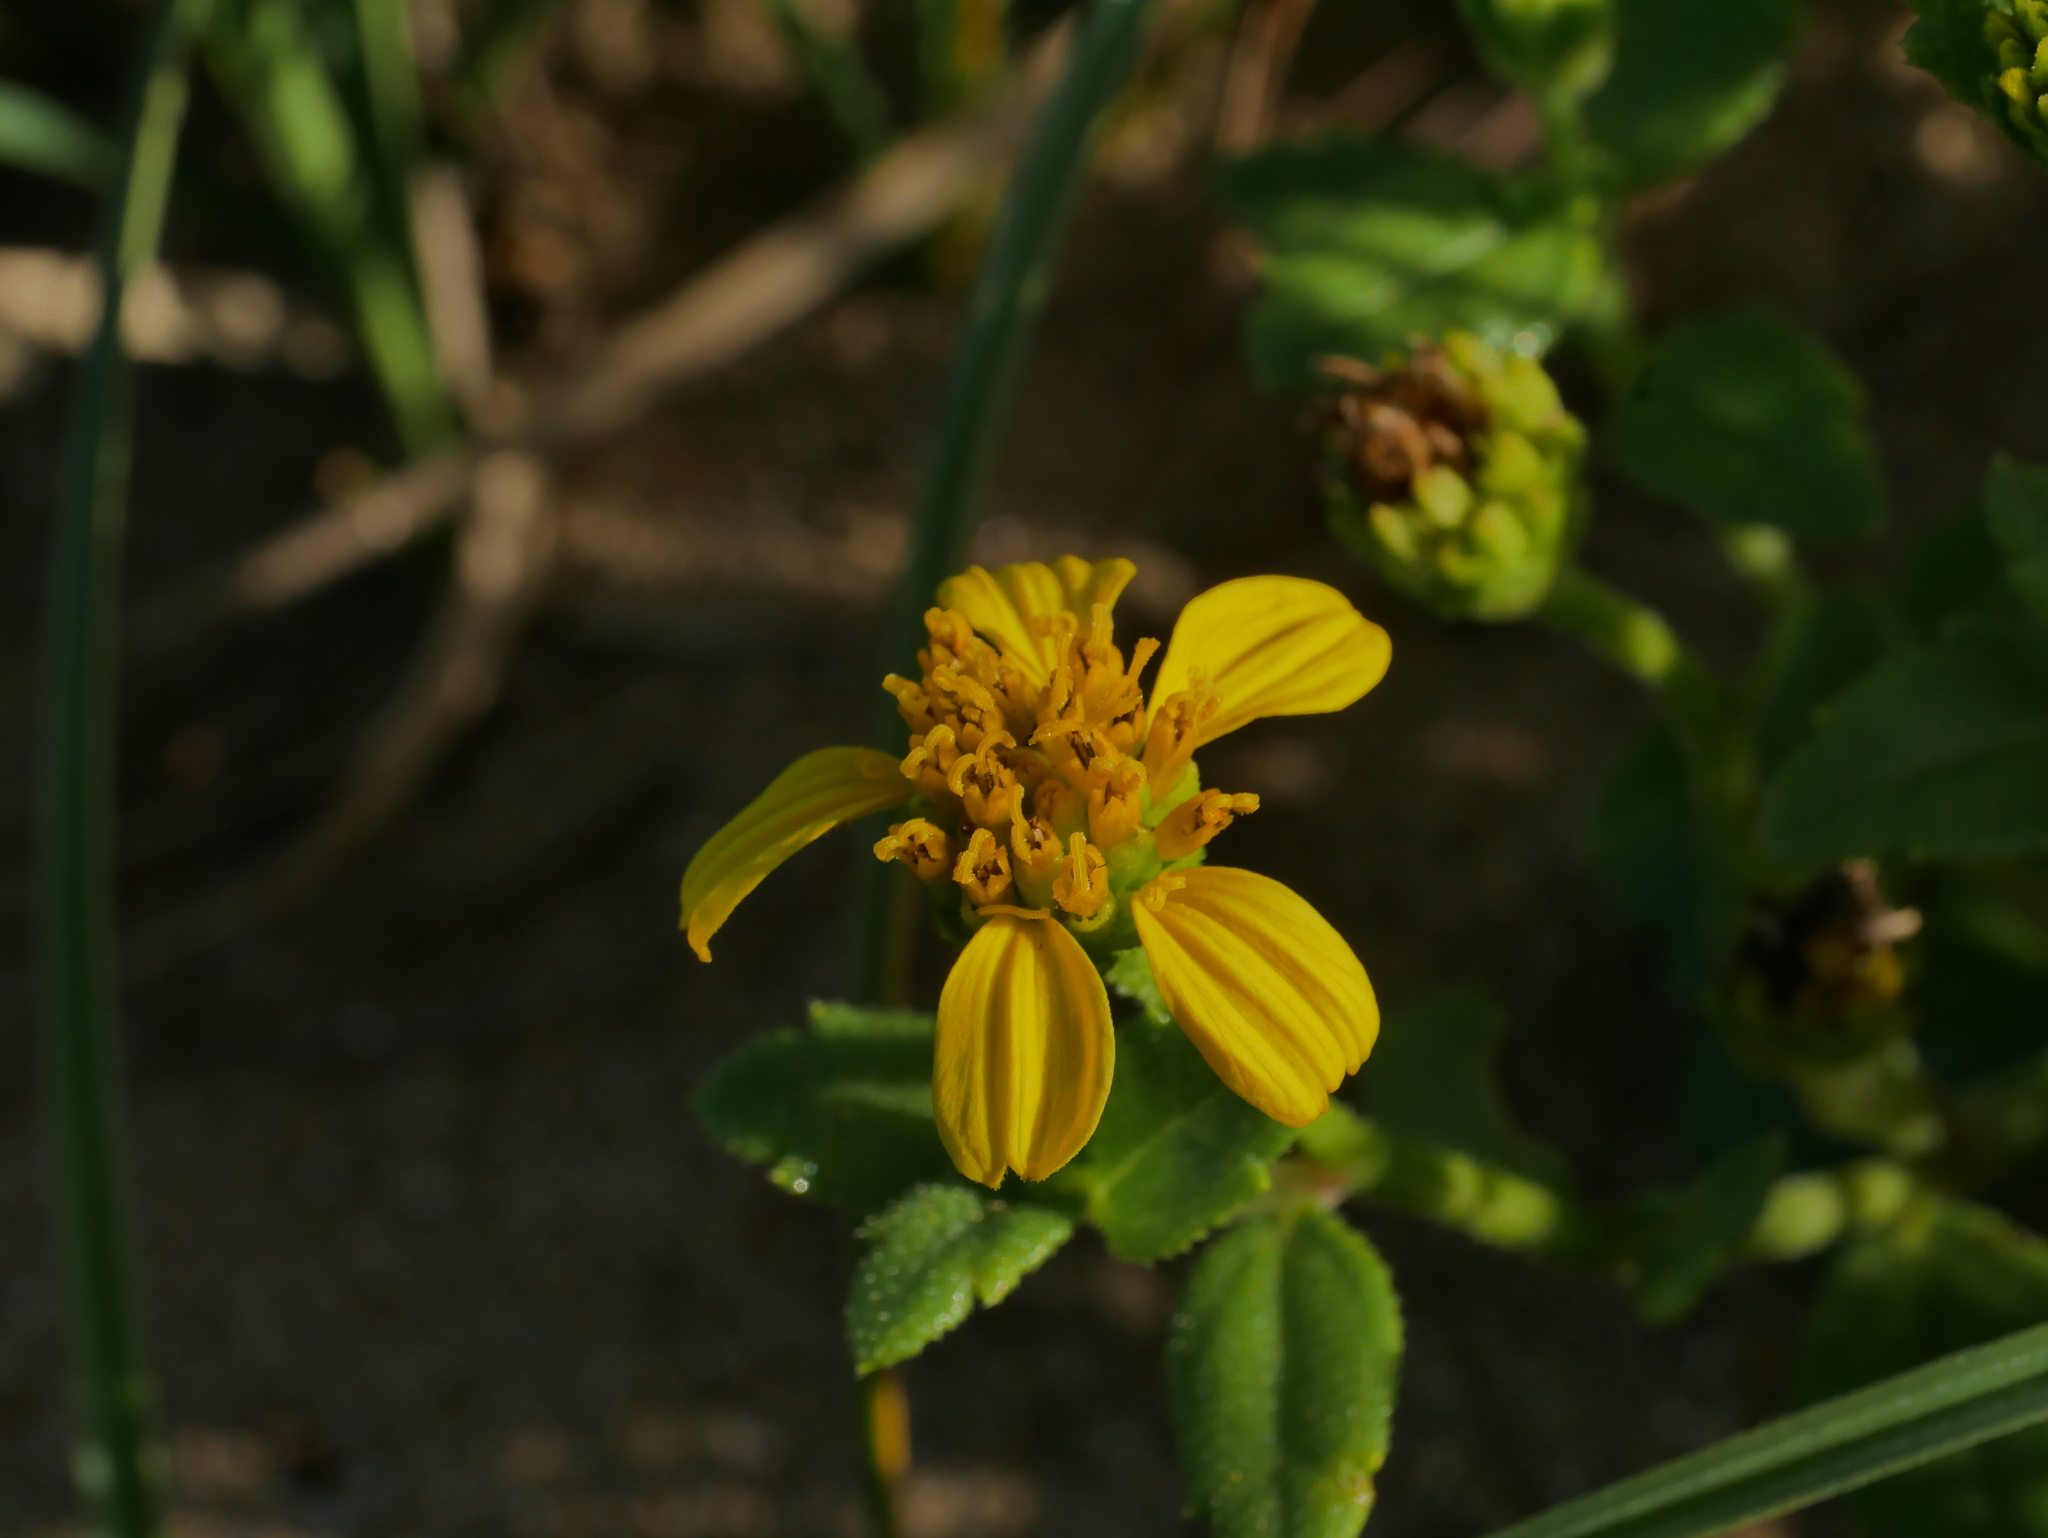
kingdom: Plantae
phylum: Tracheophyta
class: Magnoliopsida
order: Asterales
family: Asteraceae
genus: Melanthera
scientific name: Melanthera prostrata
